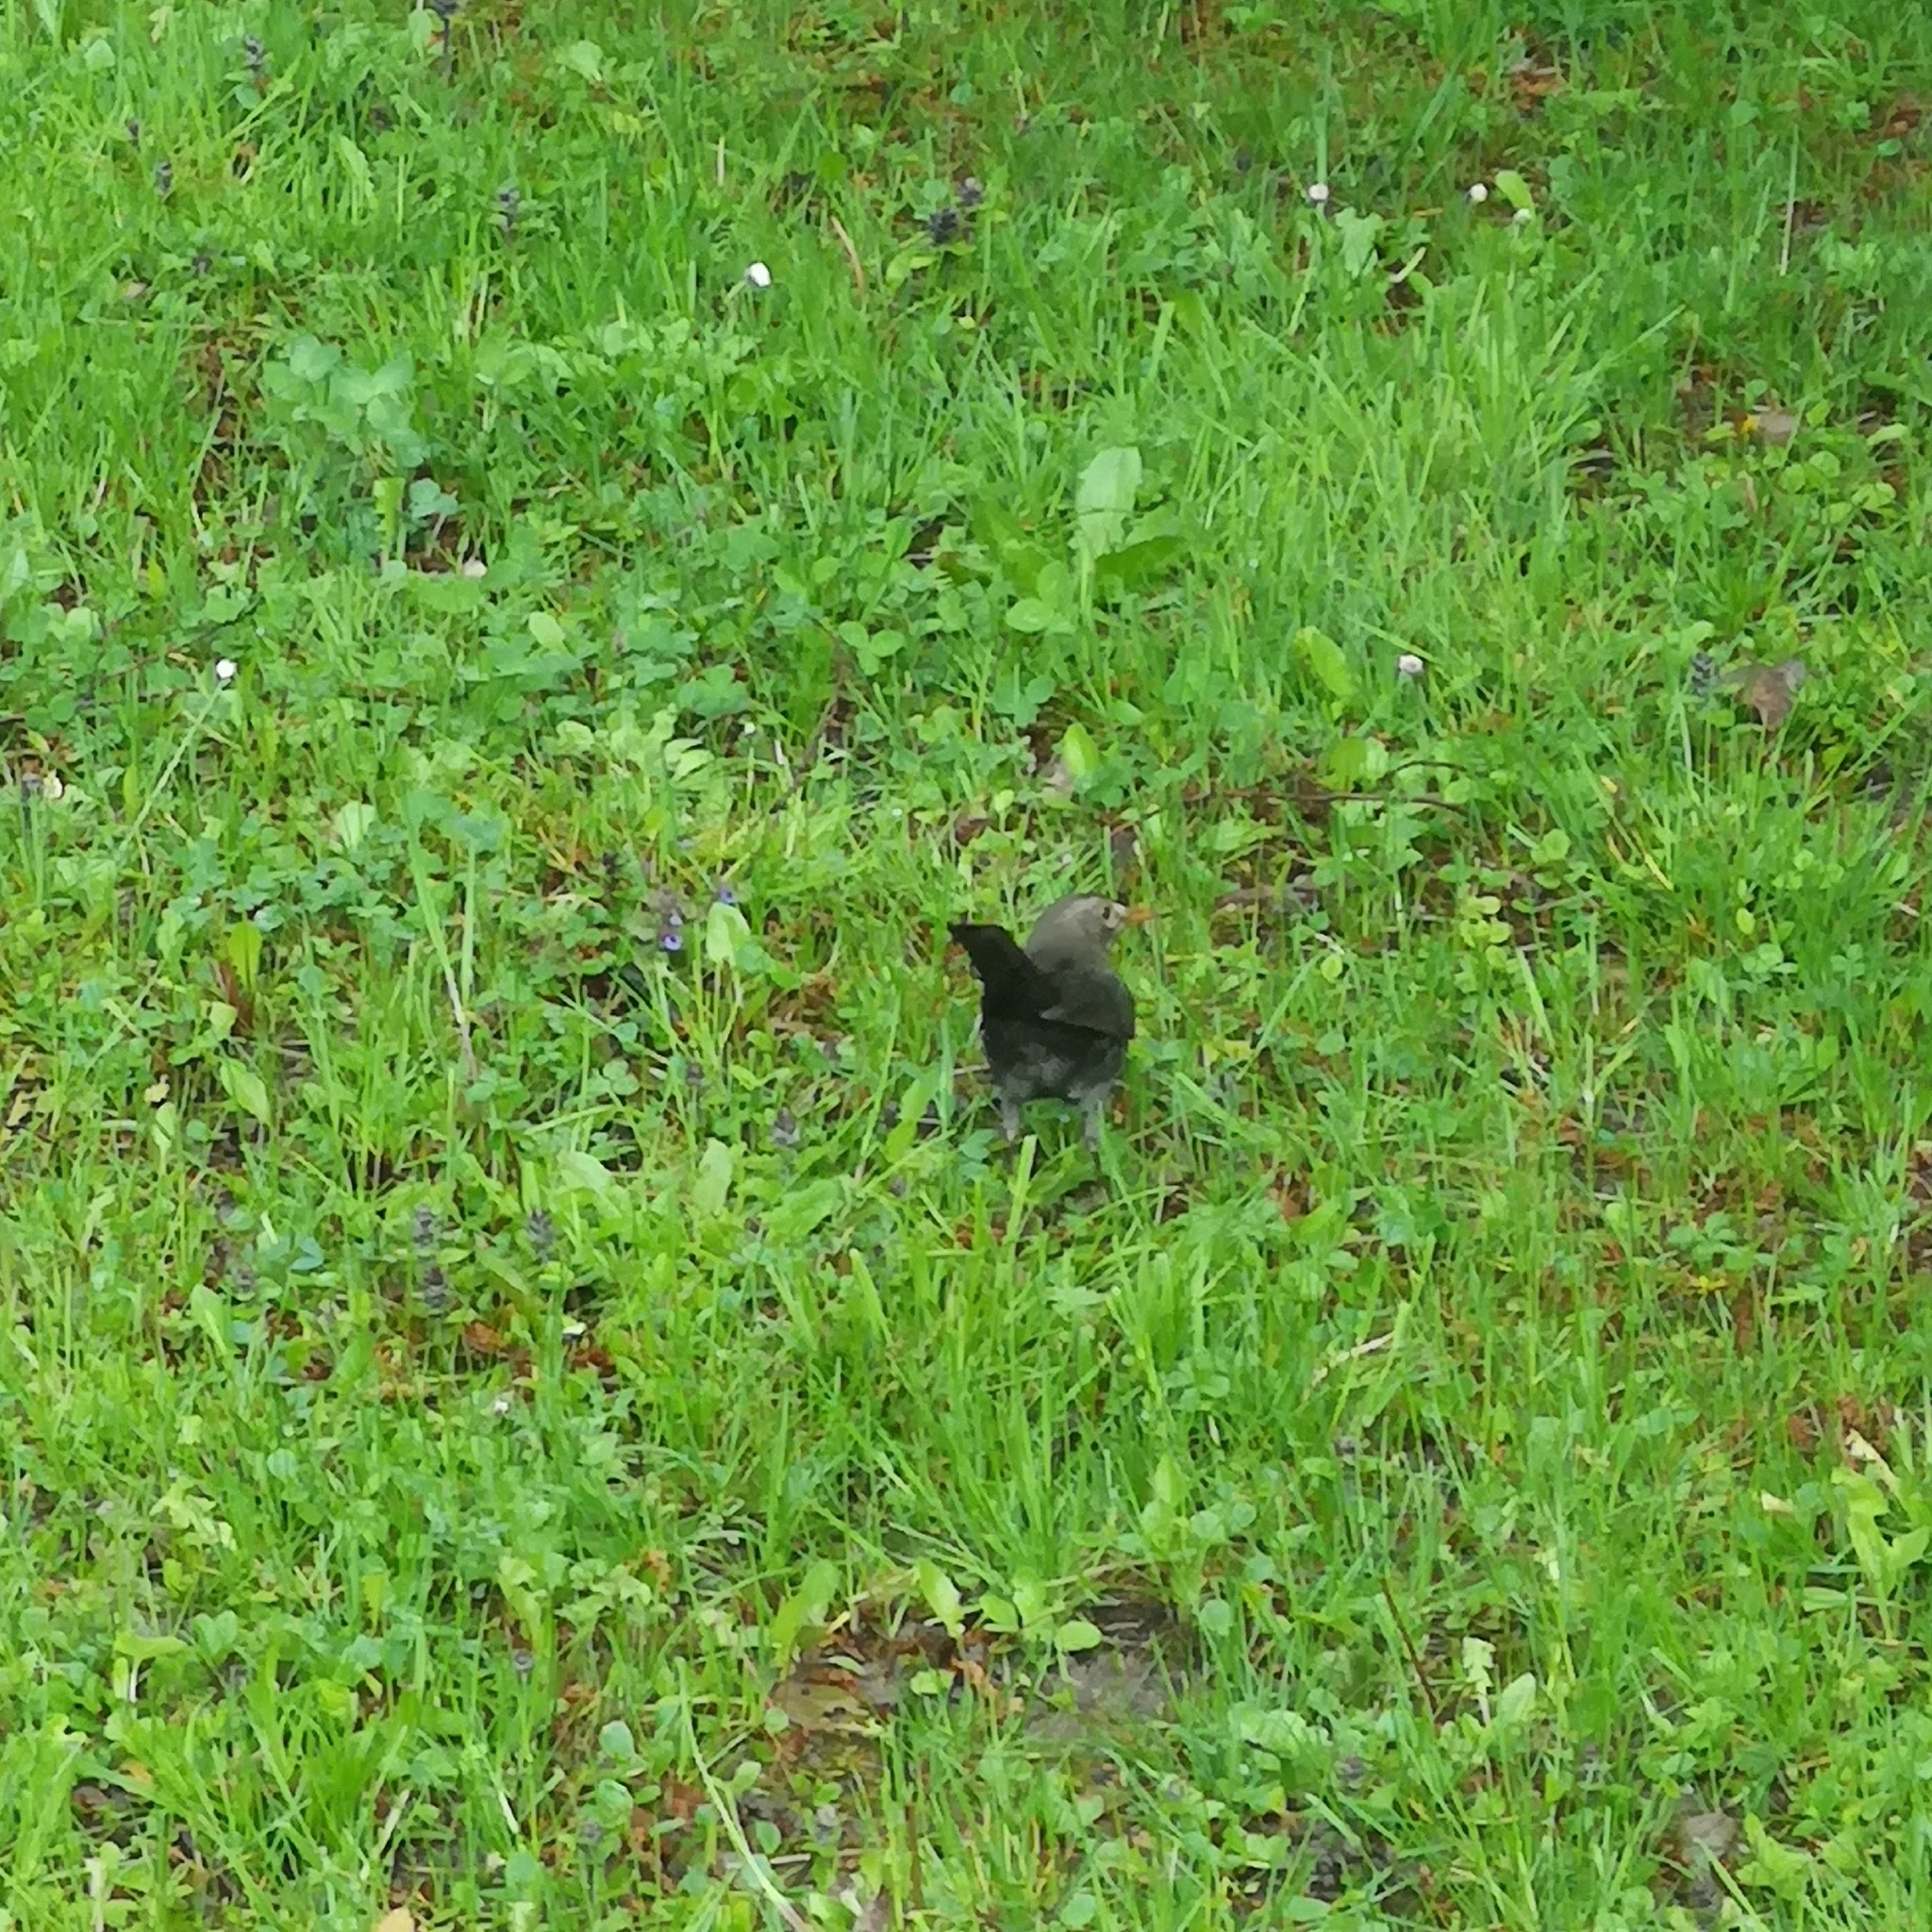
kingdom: Animalia
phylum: Chordata
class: Aves
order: Passeriformes
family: Turdidae
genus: Turdus
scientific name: Turdus merula
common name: Common blackbird
